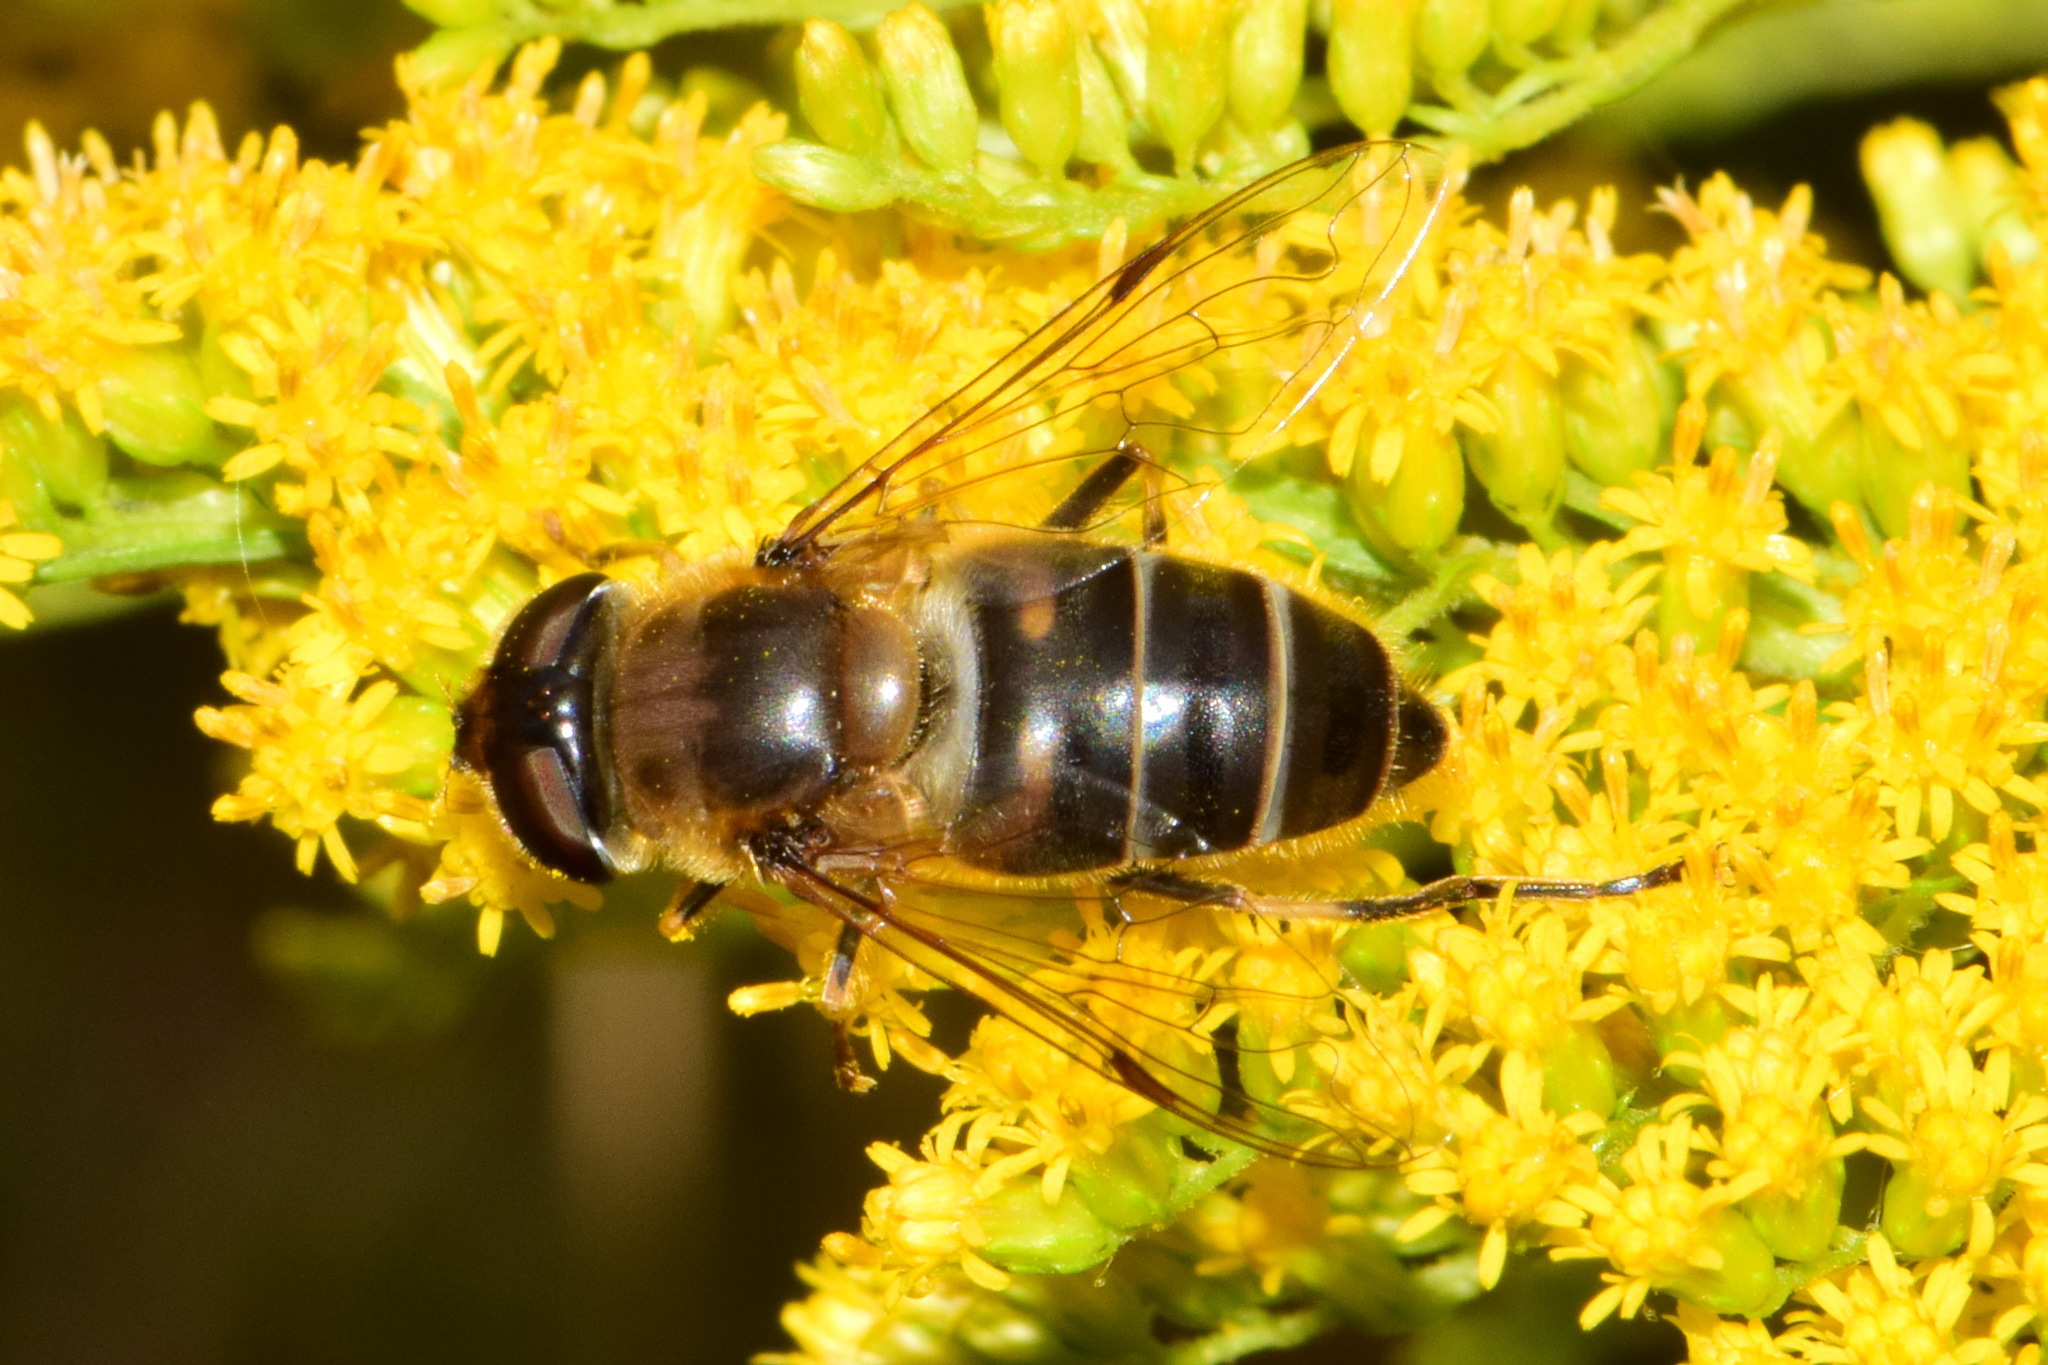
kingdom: Animalia
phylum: Arthropoda
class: Insecta
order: Diptera
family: Syrphidae
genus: Eristalis
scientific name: Eristalis pertinax
